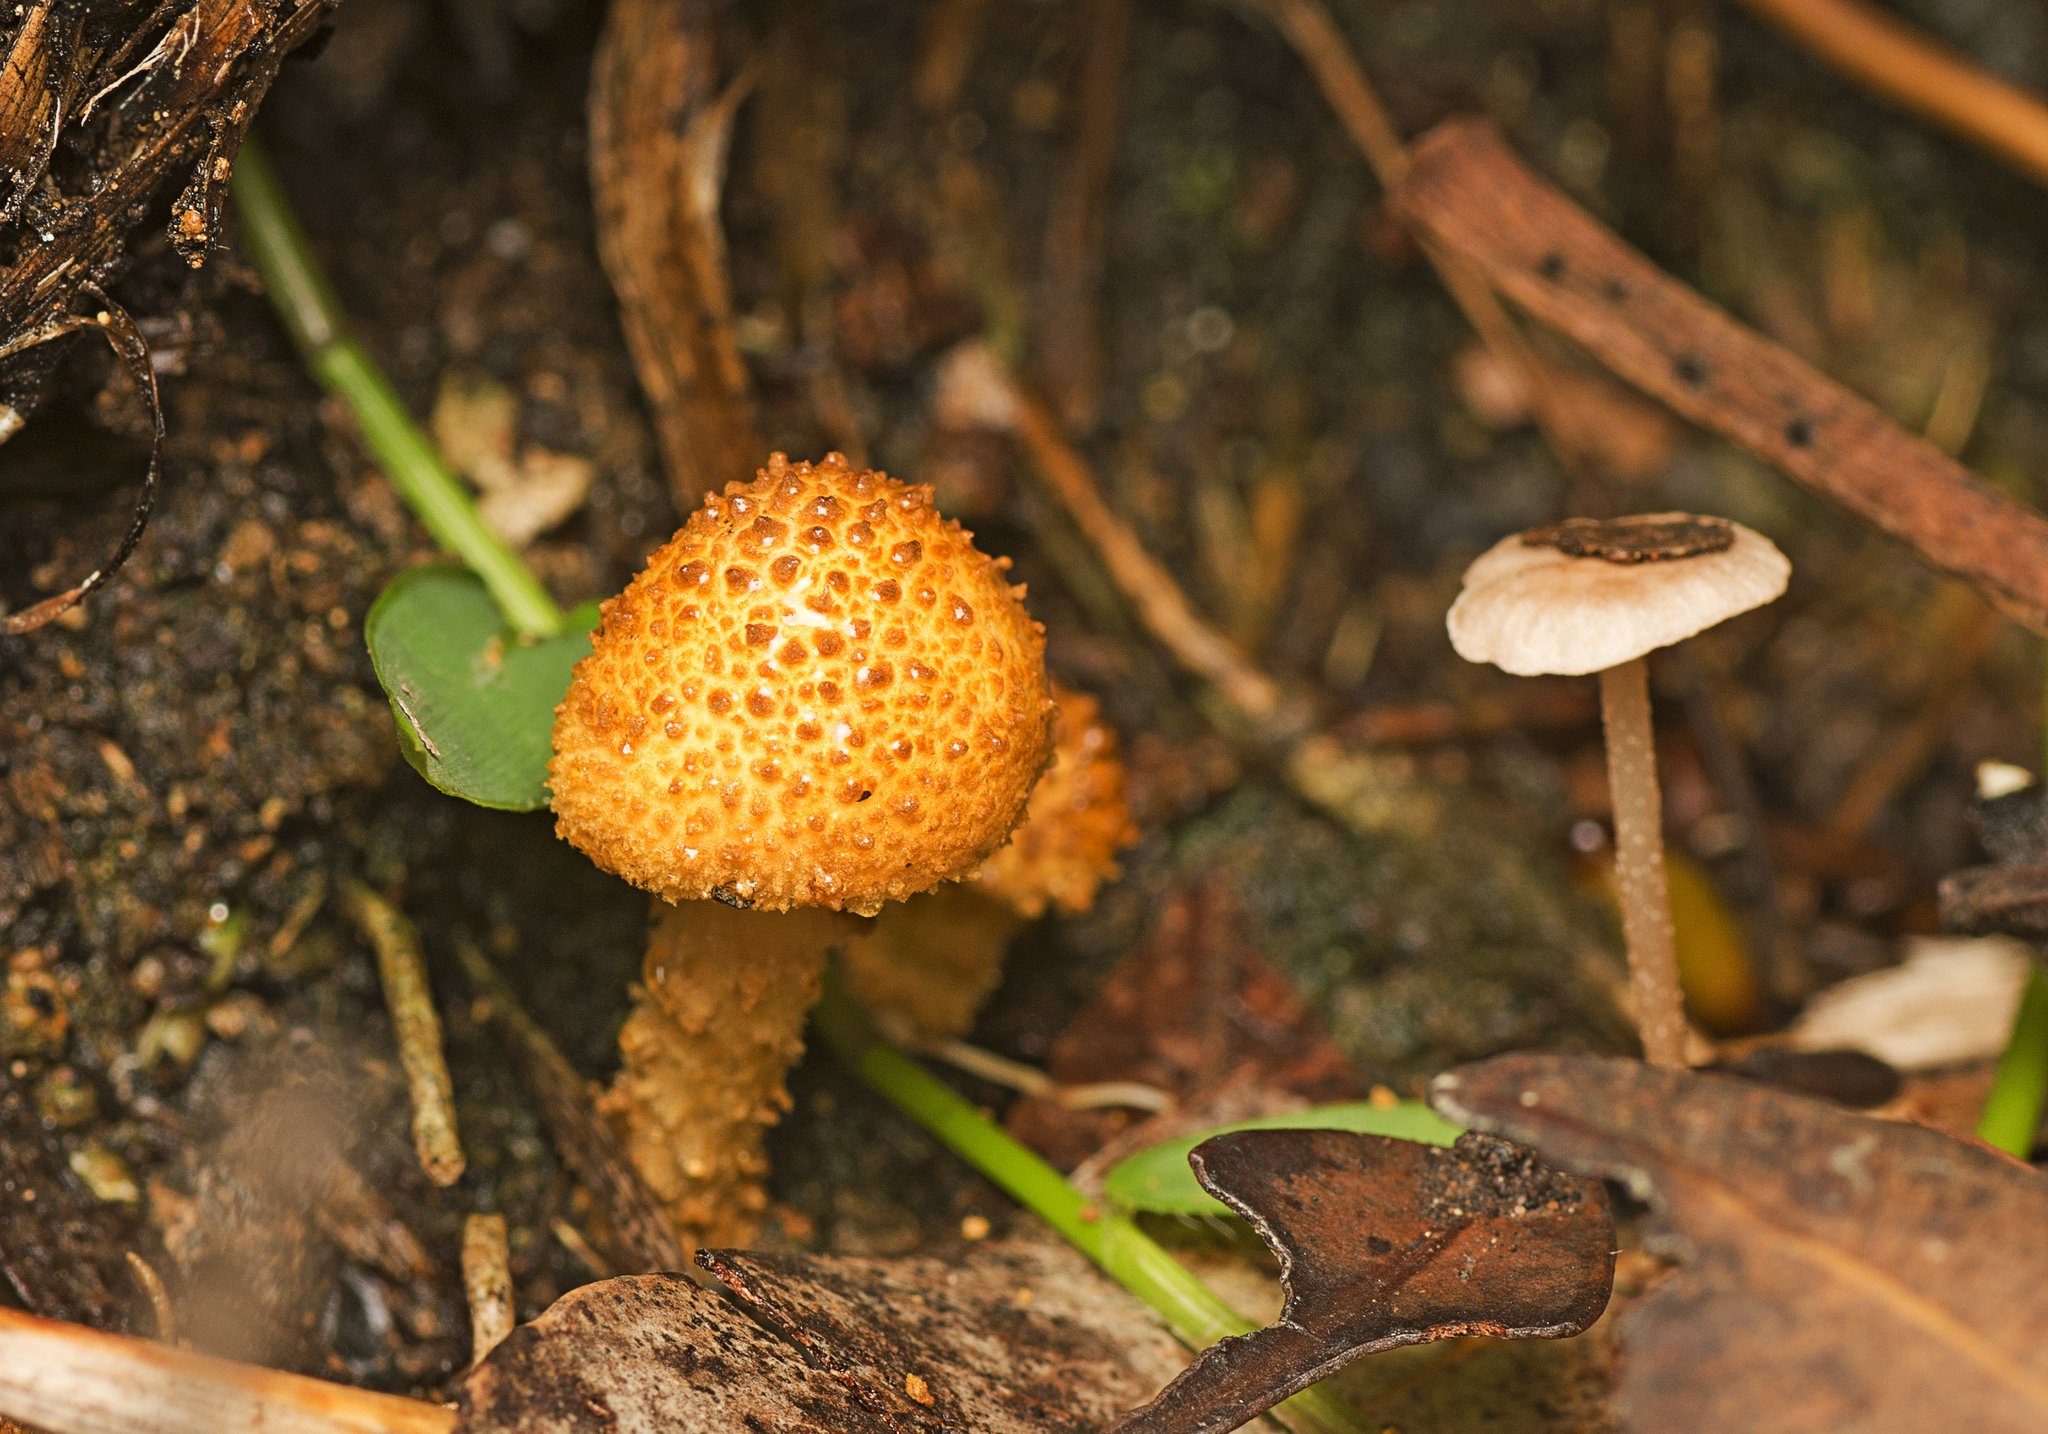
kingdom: Fungi
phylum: Basidiomycota
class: Agaricomycetes
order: Agaricales
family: Physalacriaceae
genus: Cyptotrama
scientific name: Cyptotrama asprata
